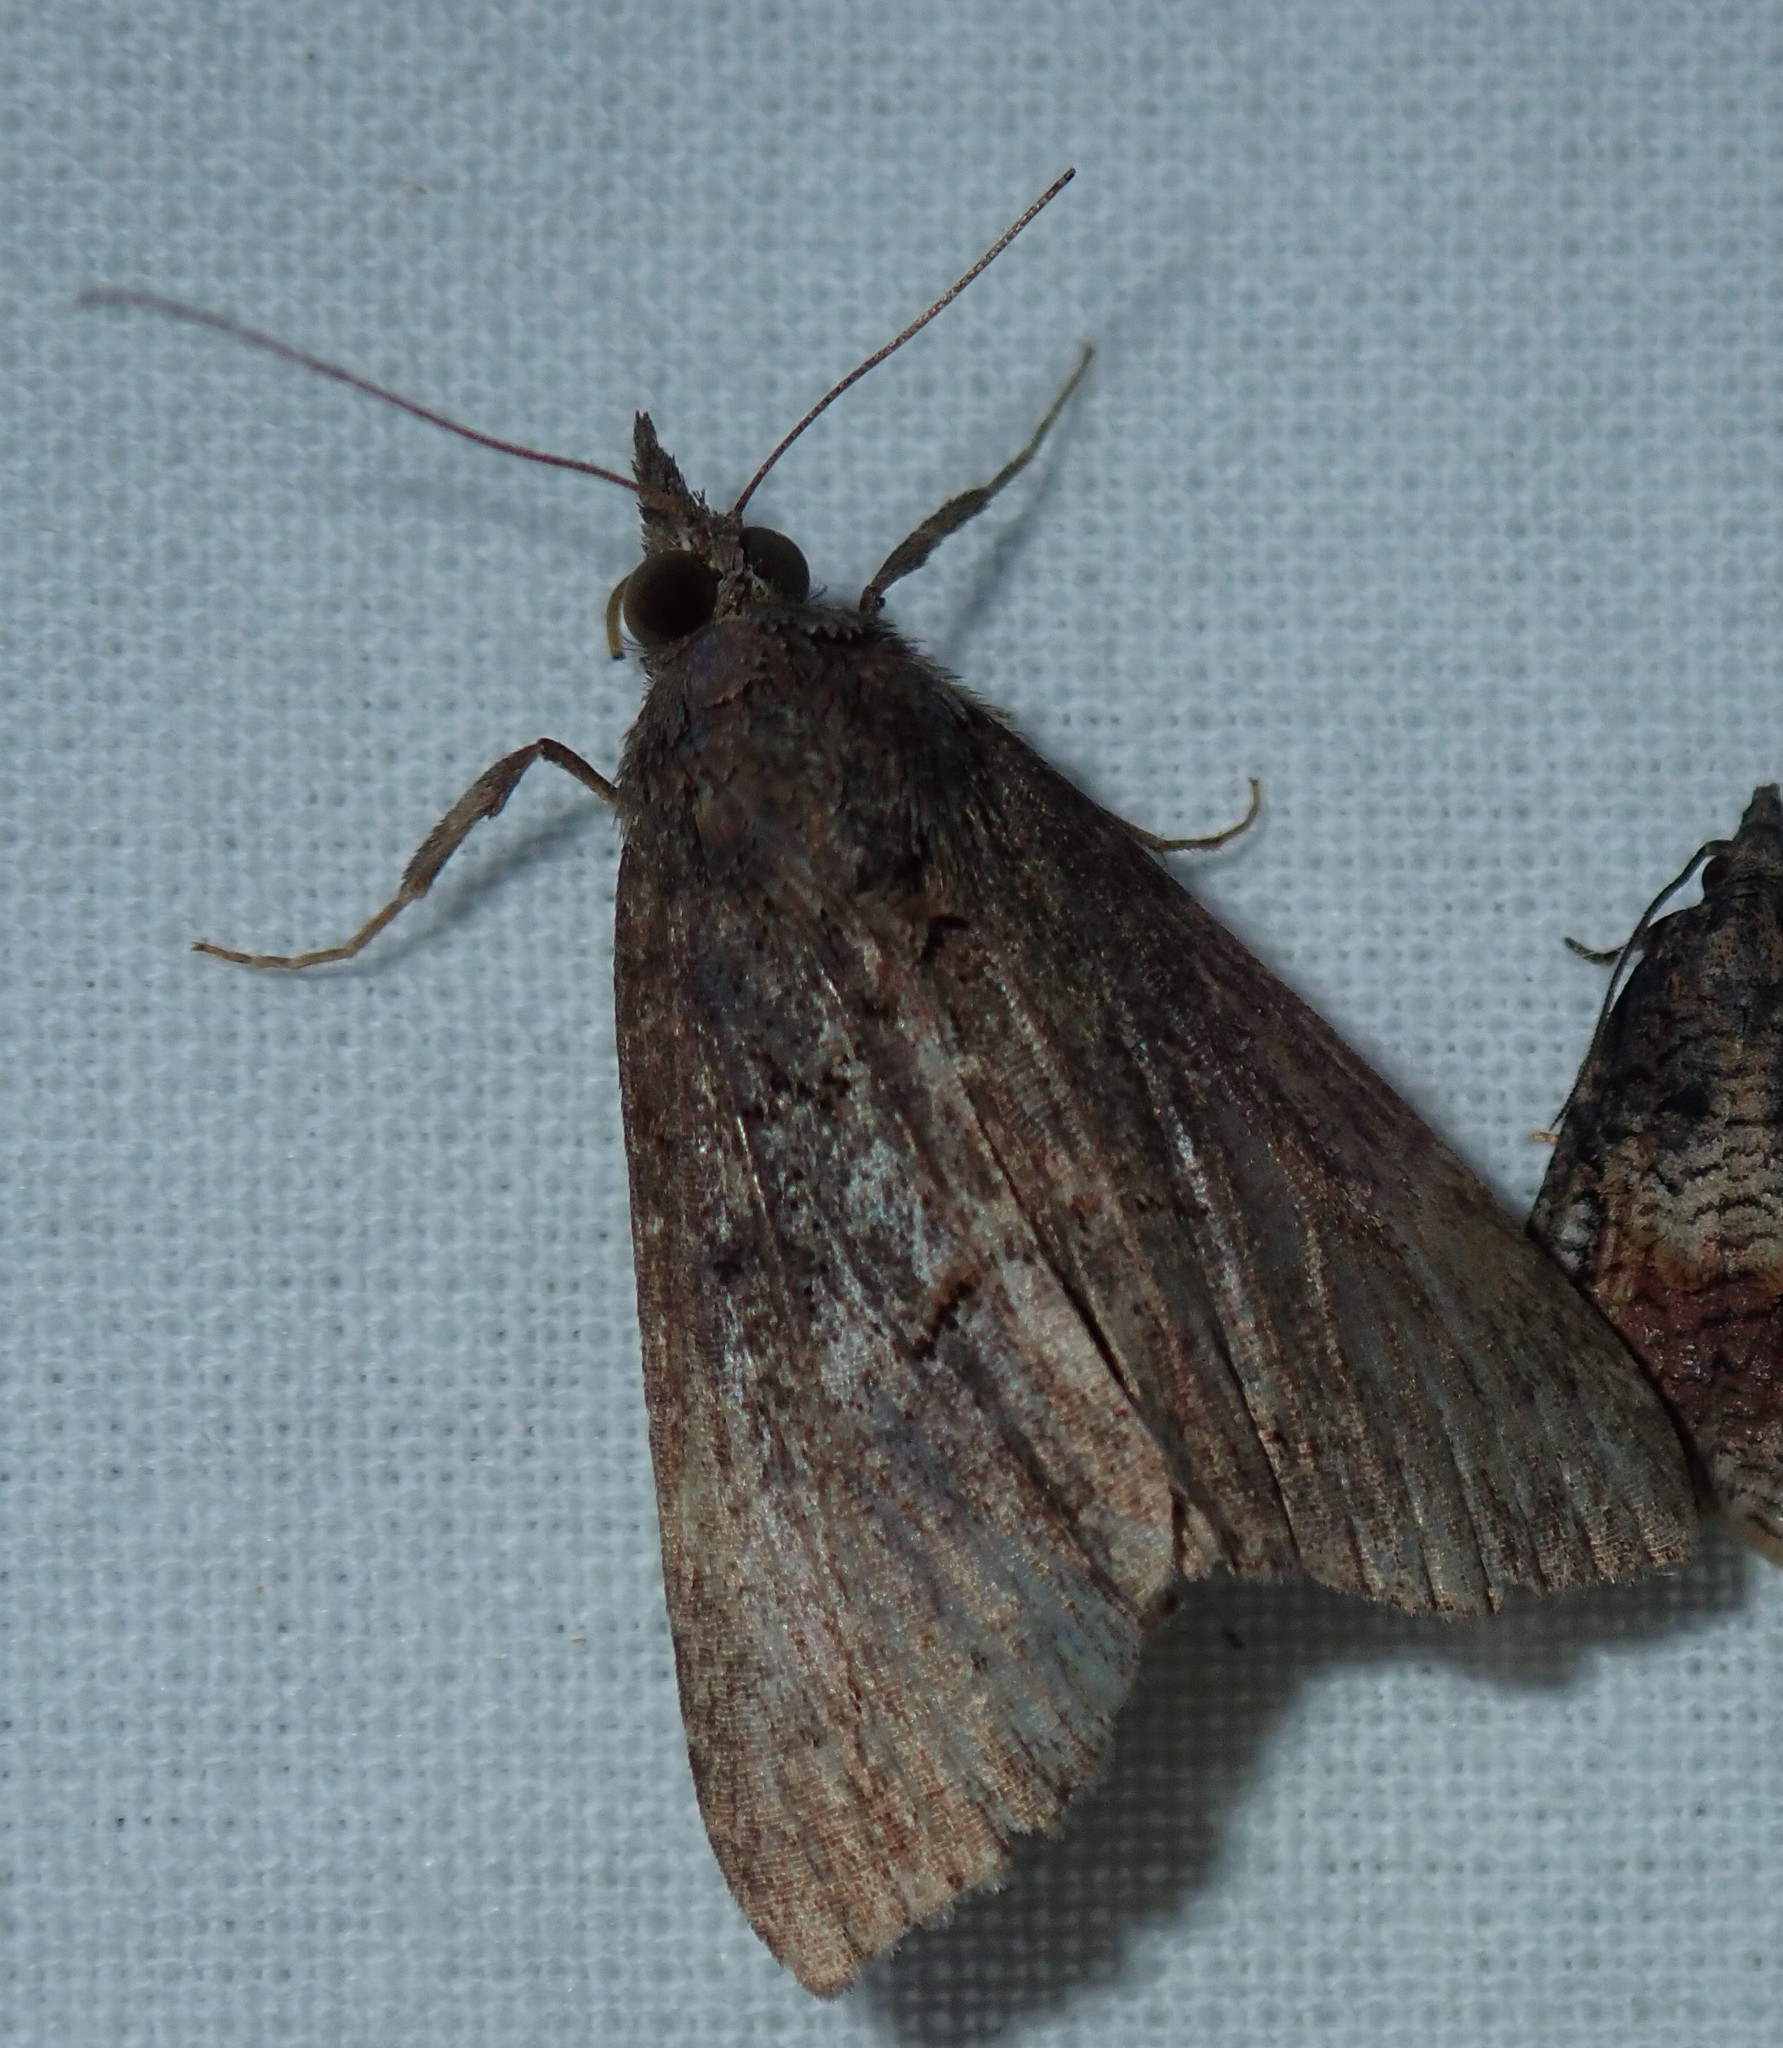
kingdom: Animalia
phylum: Arthropoda
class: Insecta
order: Lepidoptera
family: Erebidae
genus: Hypena
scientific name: Hypena scabra
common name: Green cloverworm
